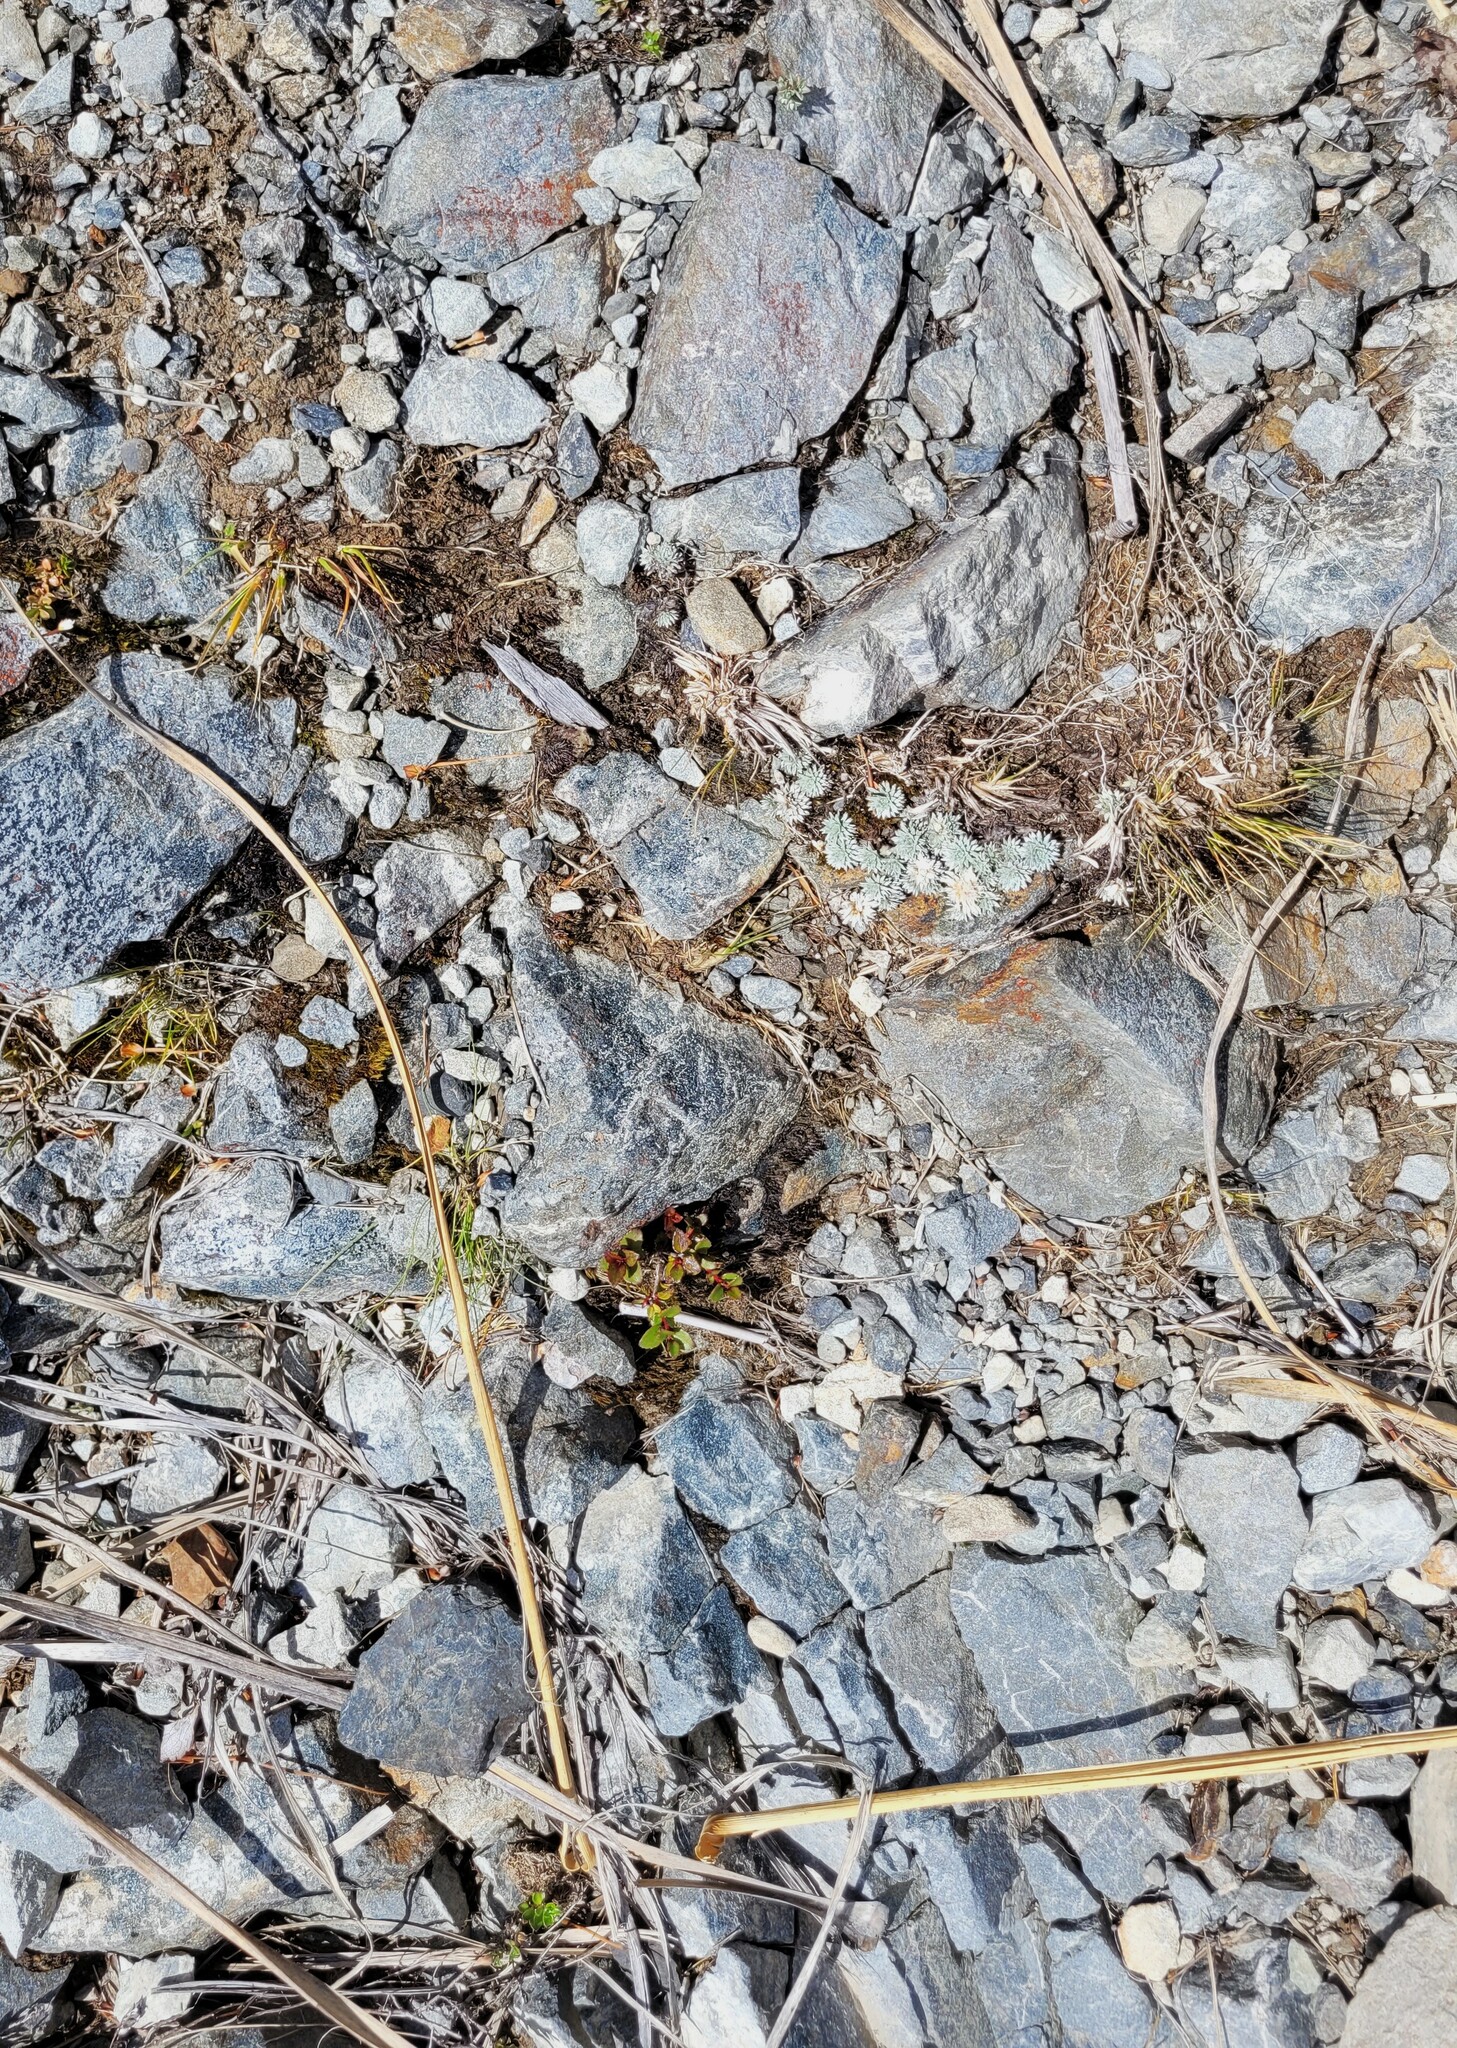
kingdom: Plantae
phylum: Tracheophyta
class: Magnoliopsida
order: Asterales
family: Asteraceae
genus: Raoulia
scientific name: Raoulia grandiflora
